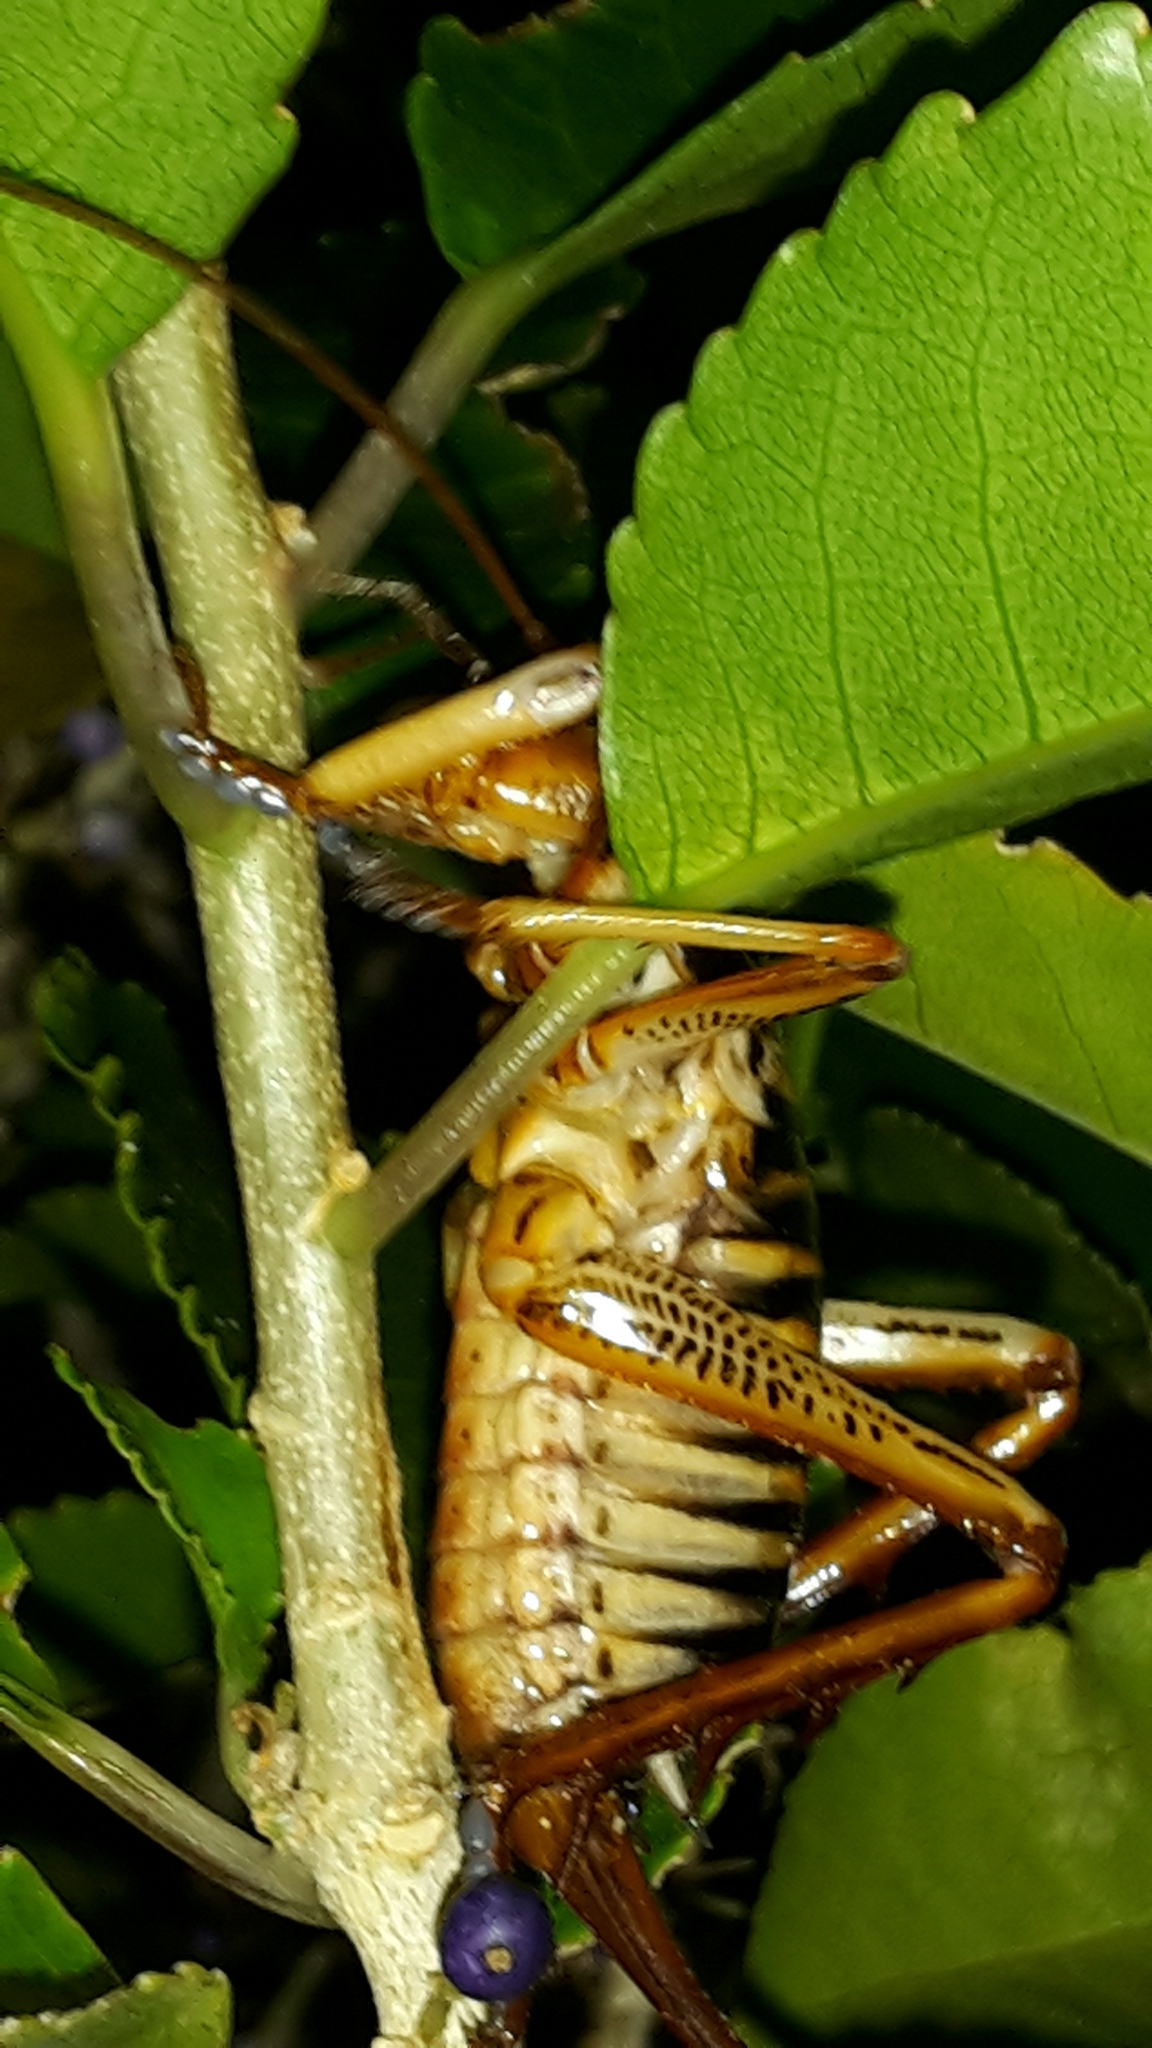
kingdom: Animalia
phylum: Arthropoda
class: Insecta
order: Orthoptera
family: Anostostomatidae
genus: Hemideina
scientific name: Hemideina crassidens
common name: Wellington tree weta
